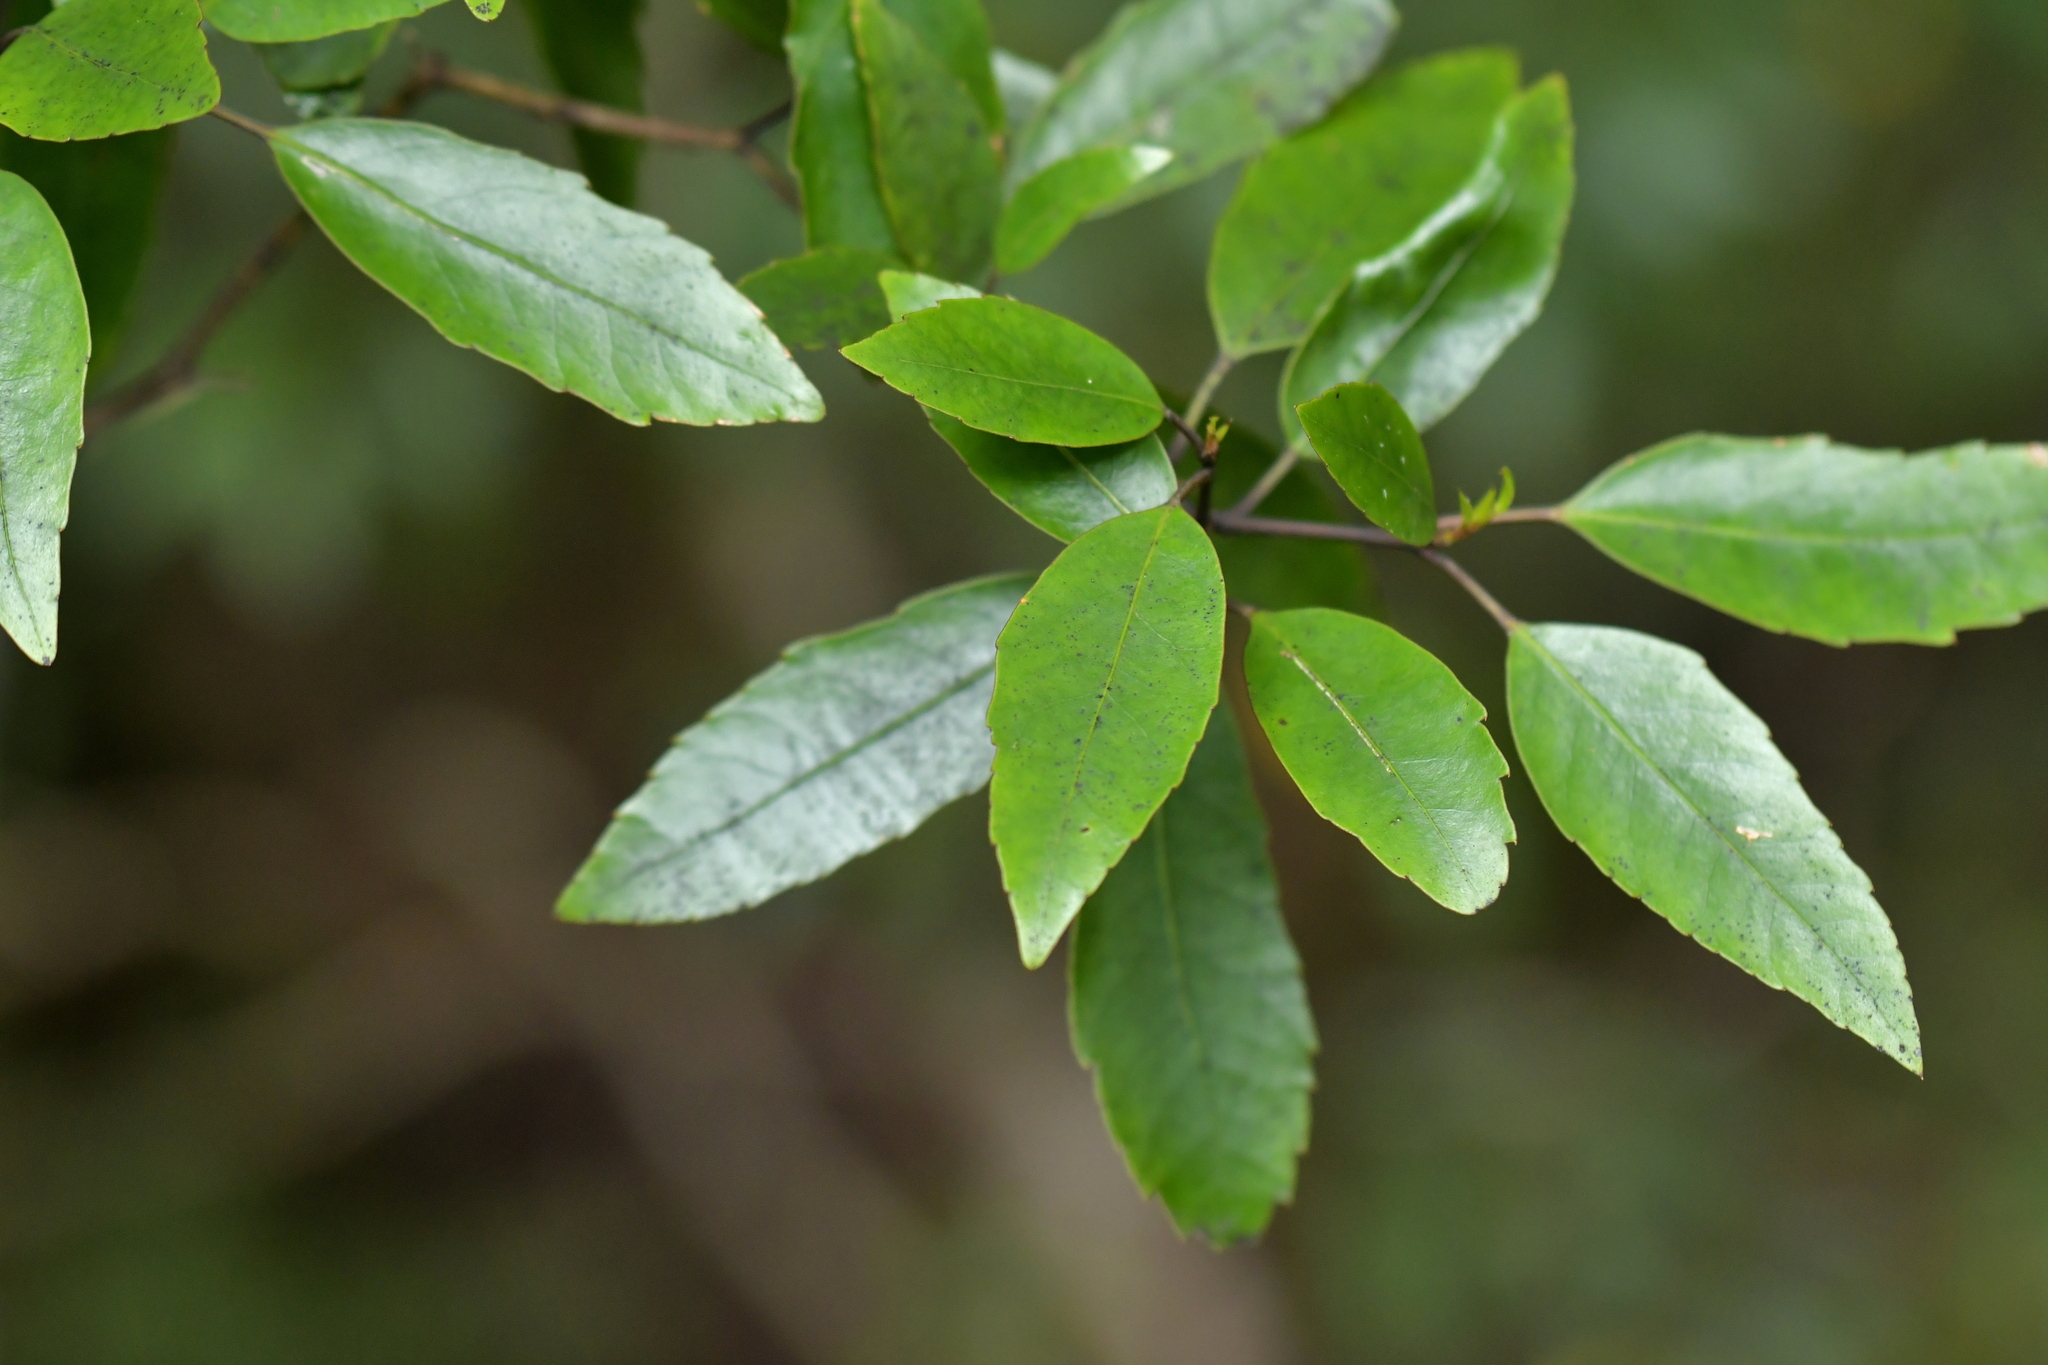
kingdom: Plantae
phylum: Tracheophyta
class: Magnoliopsida
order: Apiales
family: Araliaceae
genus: Raukaua
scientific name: Raukaua simplex
